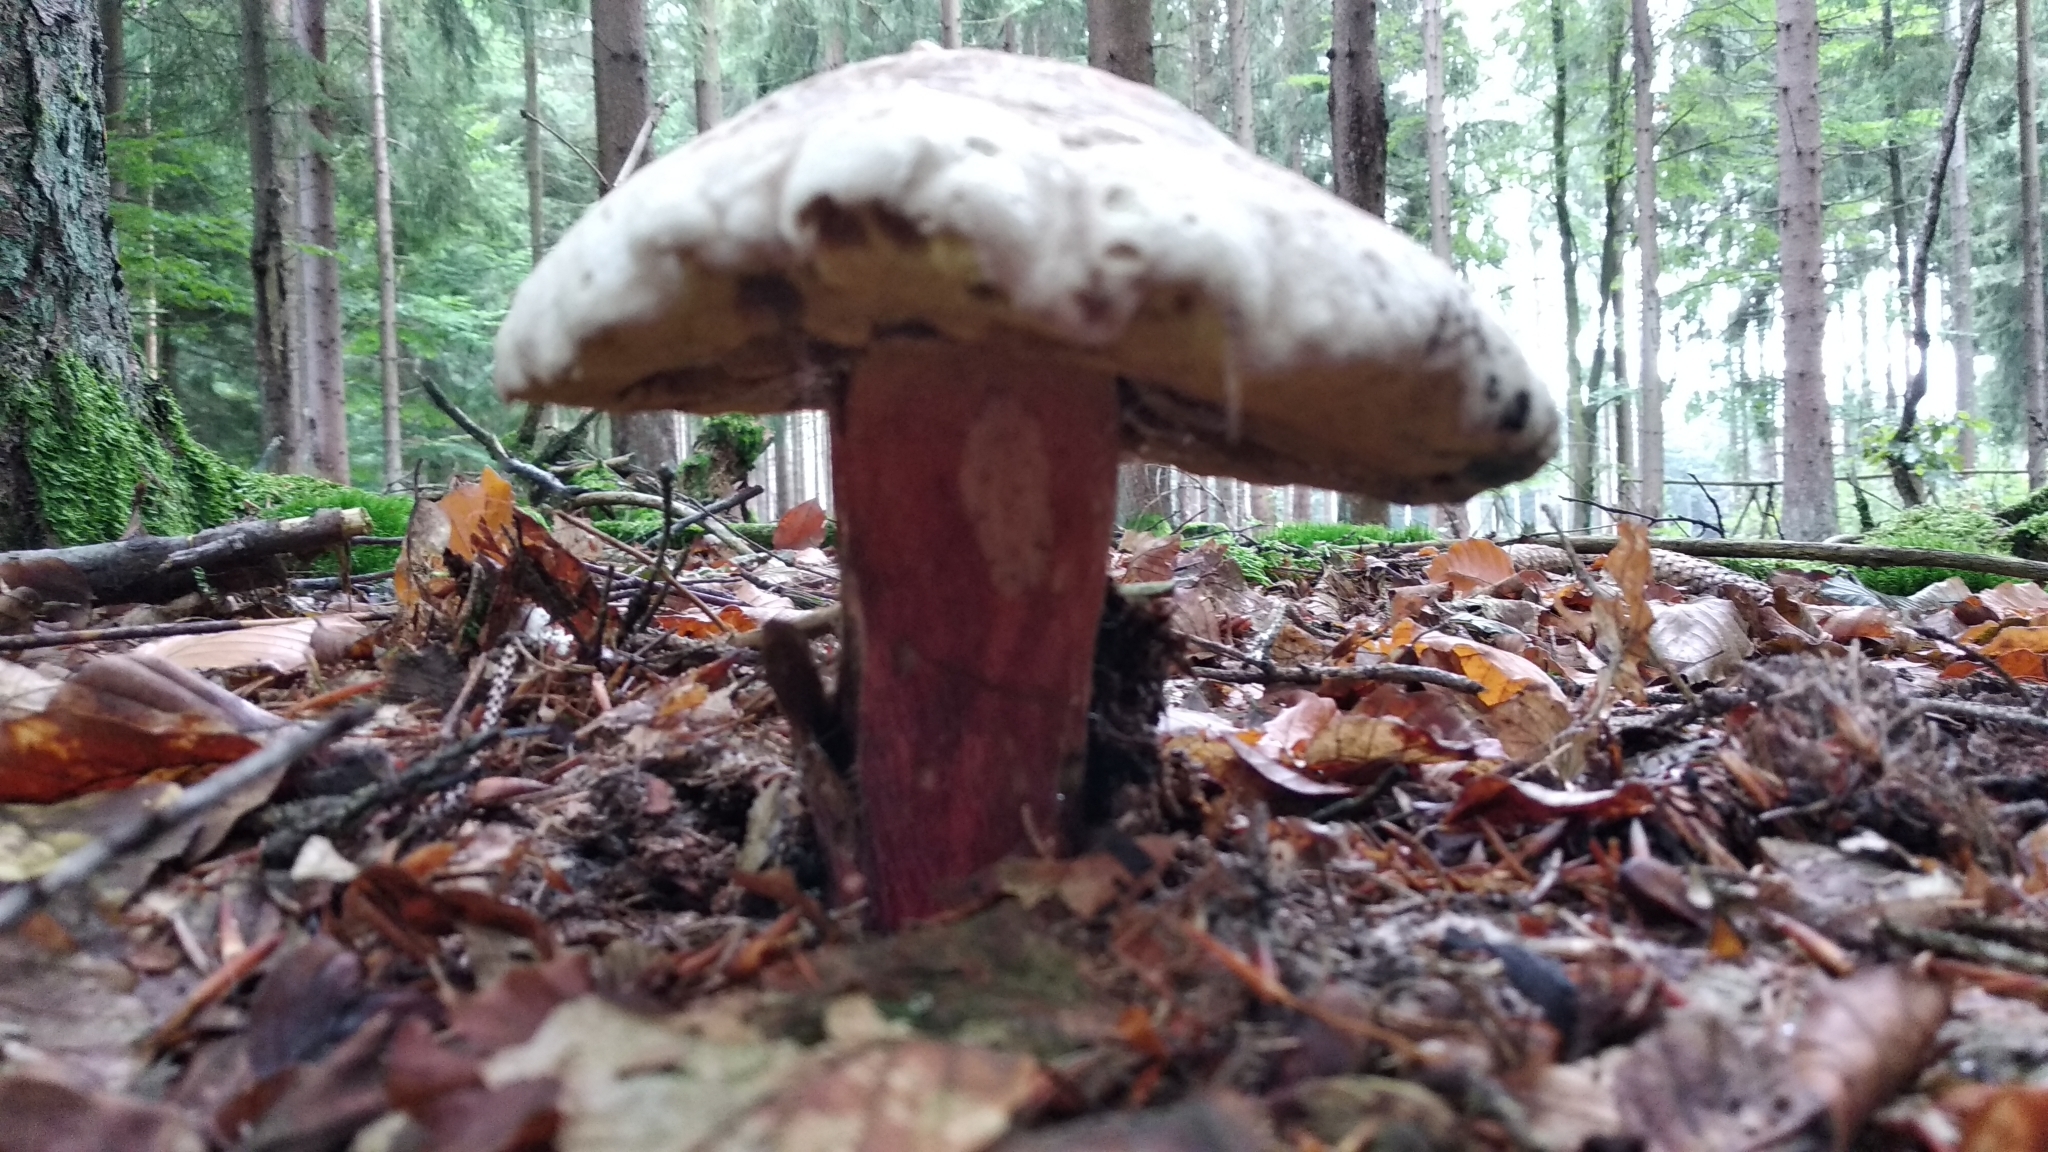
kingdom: Fungi
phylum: Basidiomycota
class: Agaricomycetes
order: Boletales
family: Boletaceae
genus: Caloboletus
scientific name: Caloboletus calopus
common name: Bitter beech bolete
